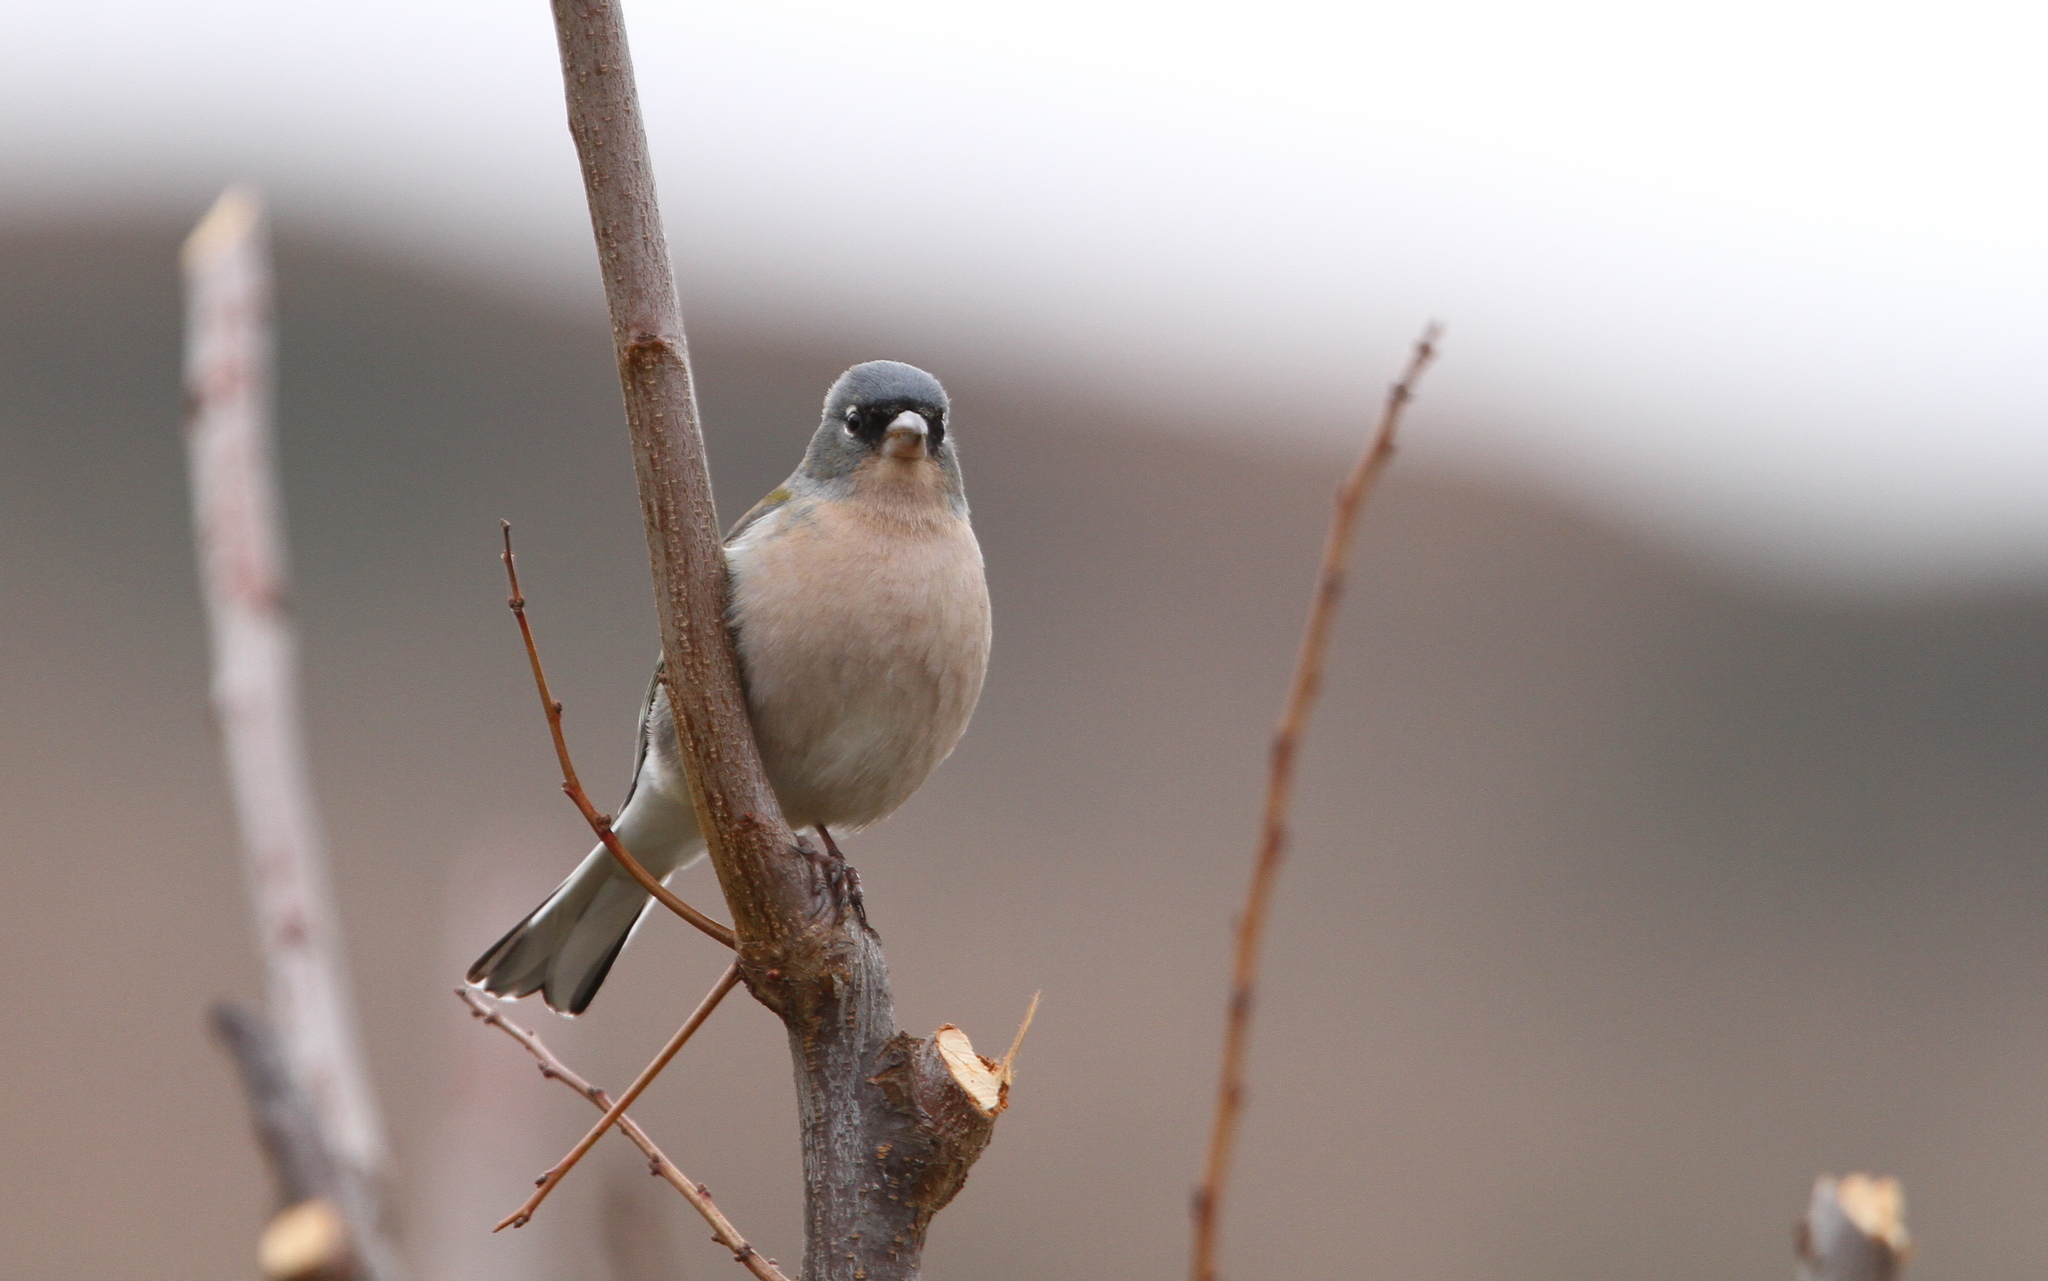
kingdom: Animalia
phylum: Chordata
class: Aves
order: Passeriformes
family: Fringillidae
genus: Fringilla
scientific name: Fringilla spodiogenys
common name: African chaffinch
